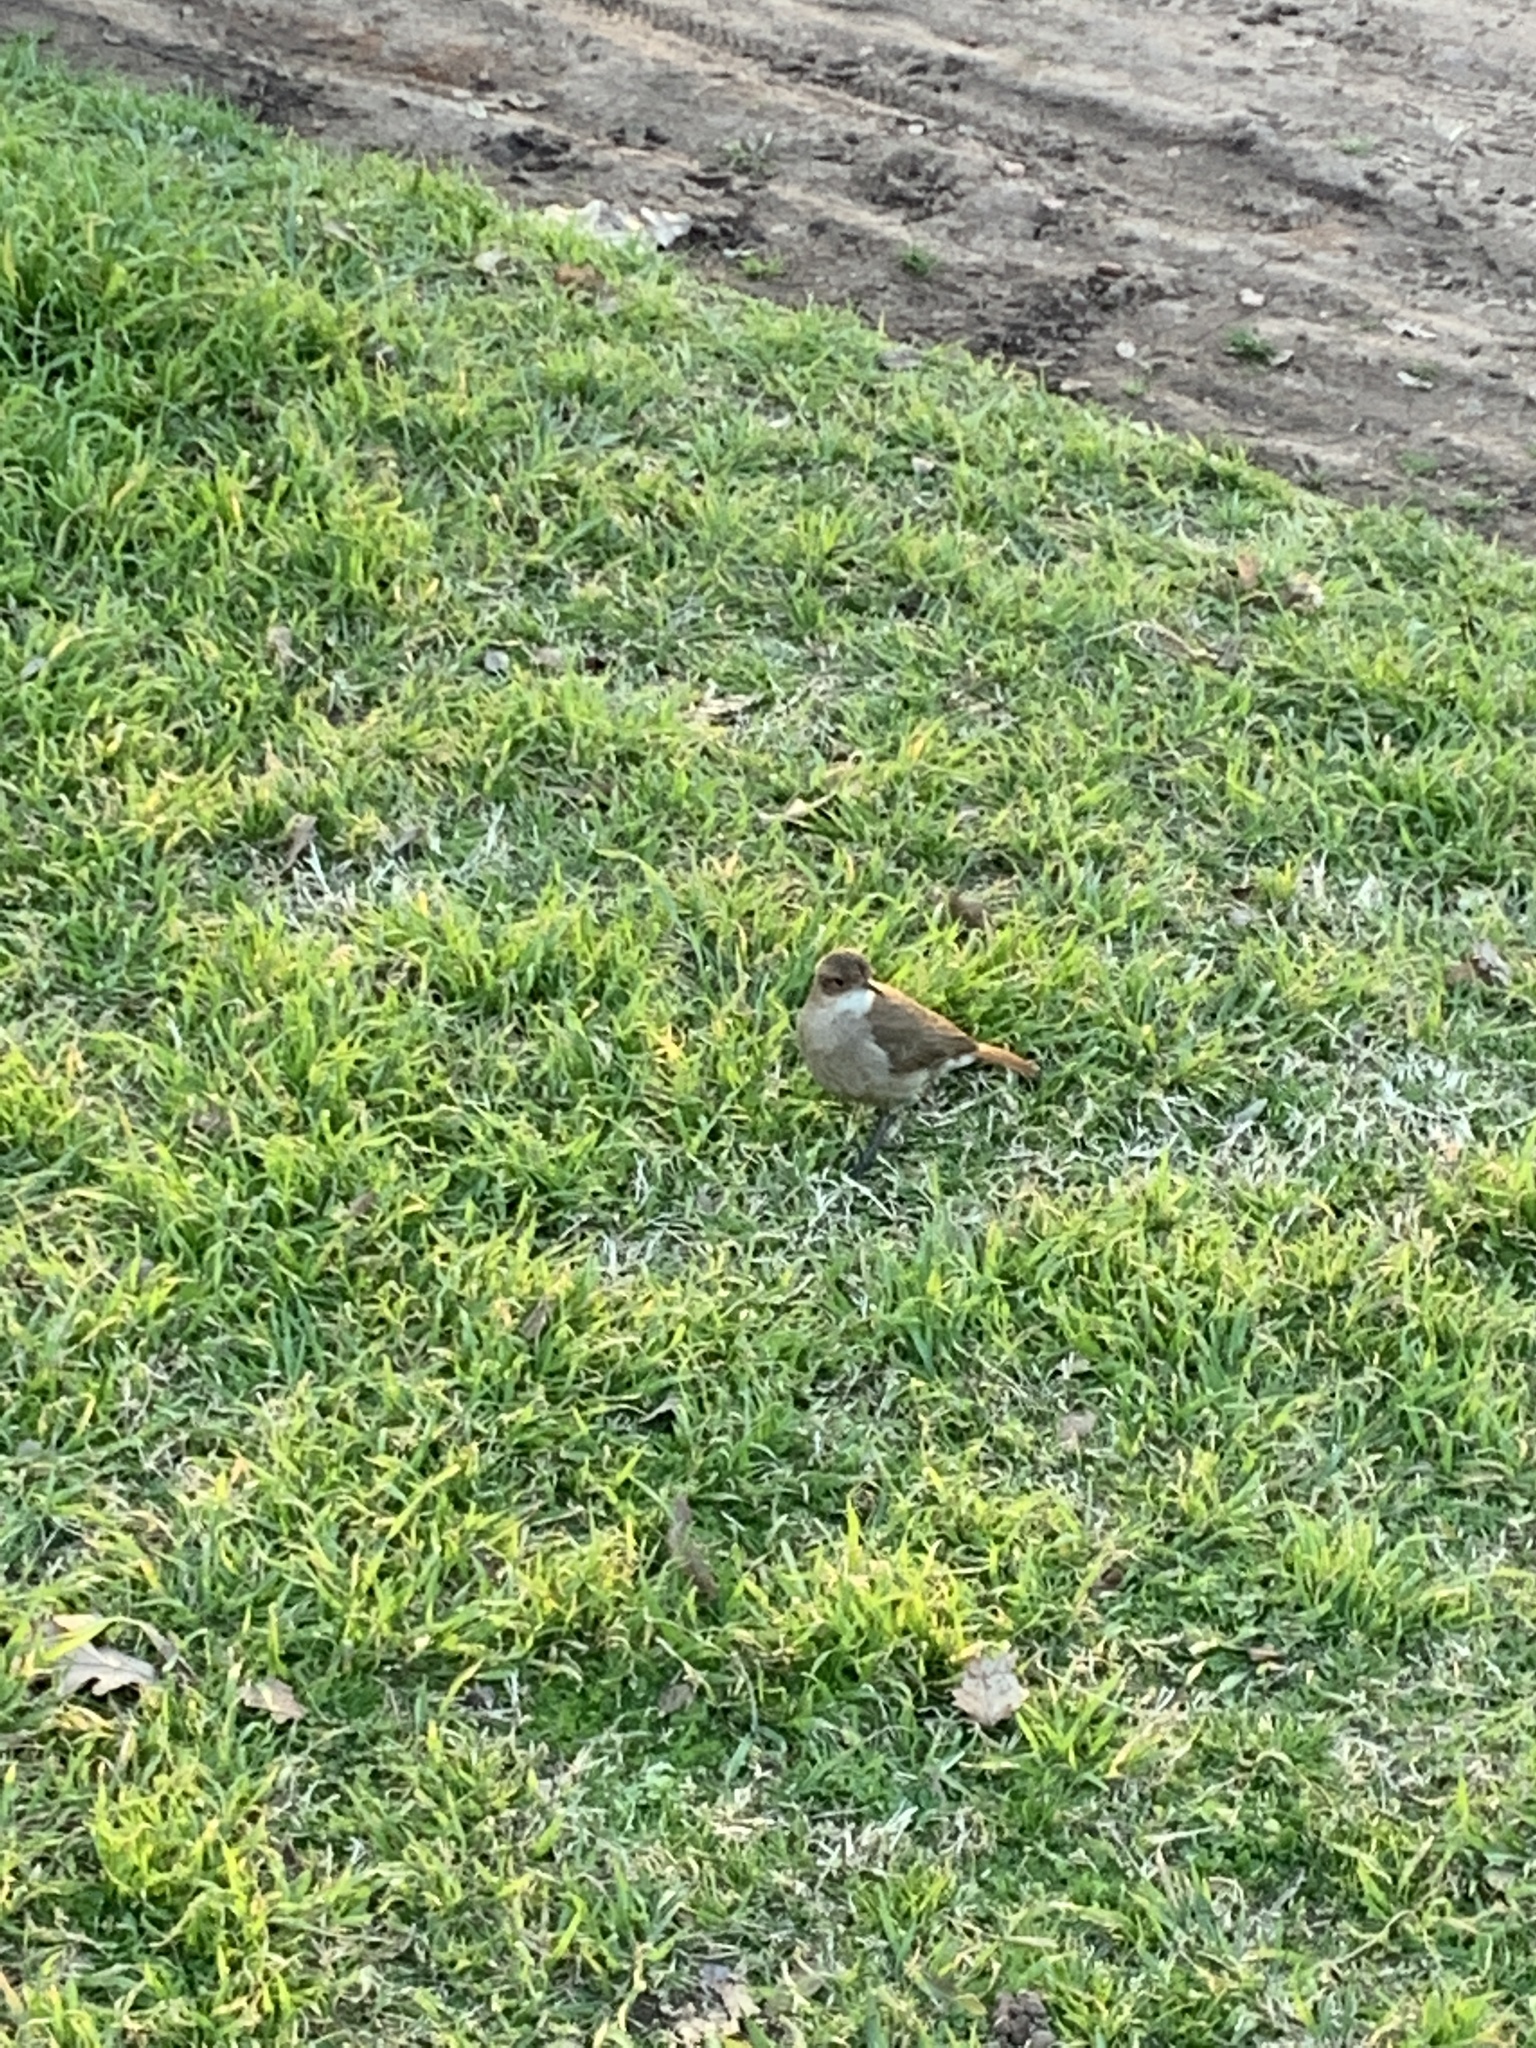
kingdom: Animalia
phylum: Chordata
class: Aves
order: Passeriformes
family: Furnariidae
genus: Furnarius
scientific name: Furnarius rufus
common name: Rufous hornero
